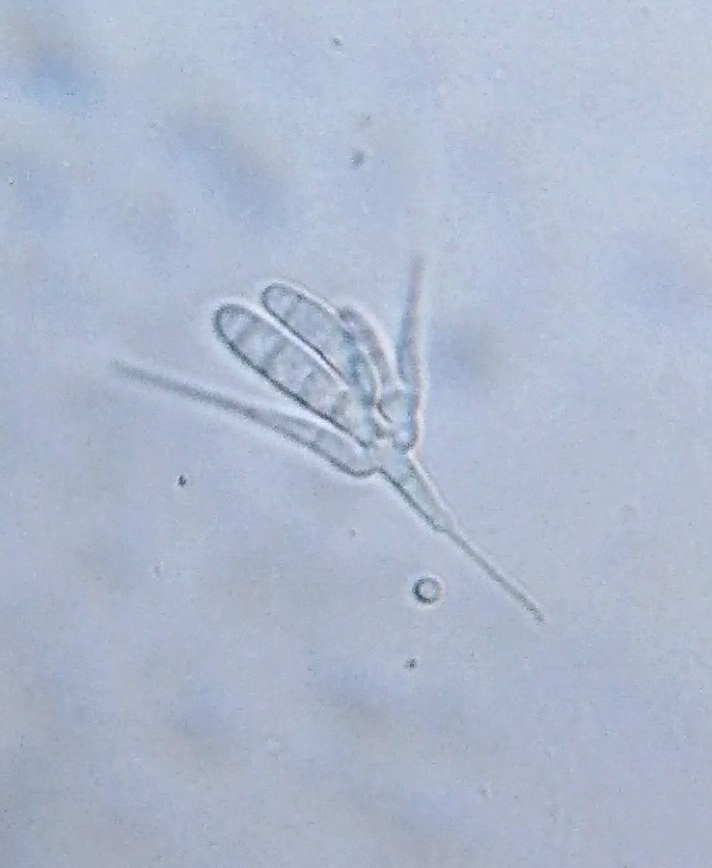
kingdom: Fungi
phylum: Ascomycota
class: Leotiomycetes
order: Helotiales
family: Helotiaceae
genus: Tetracladium
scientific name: Tetracladium setigerum
